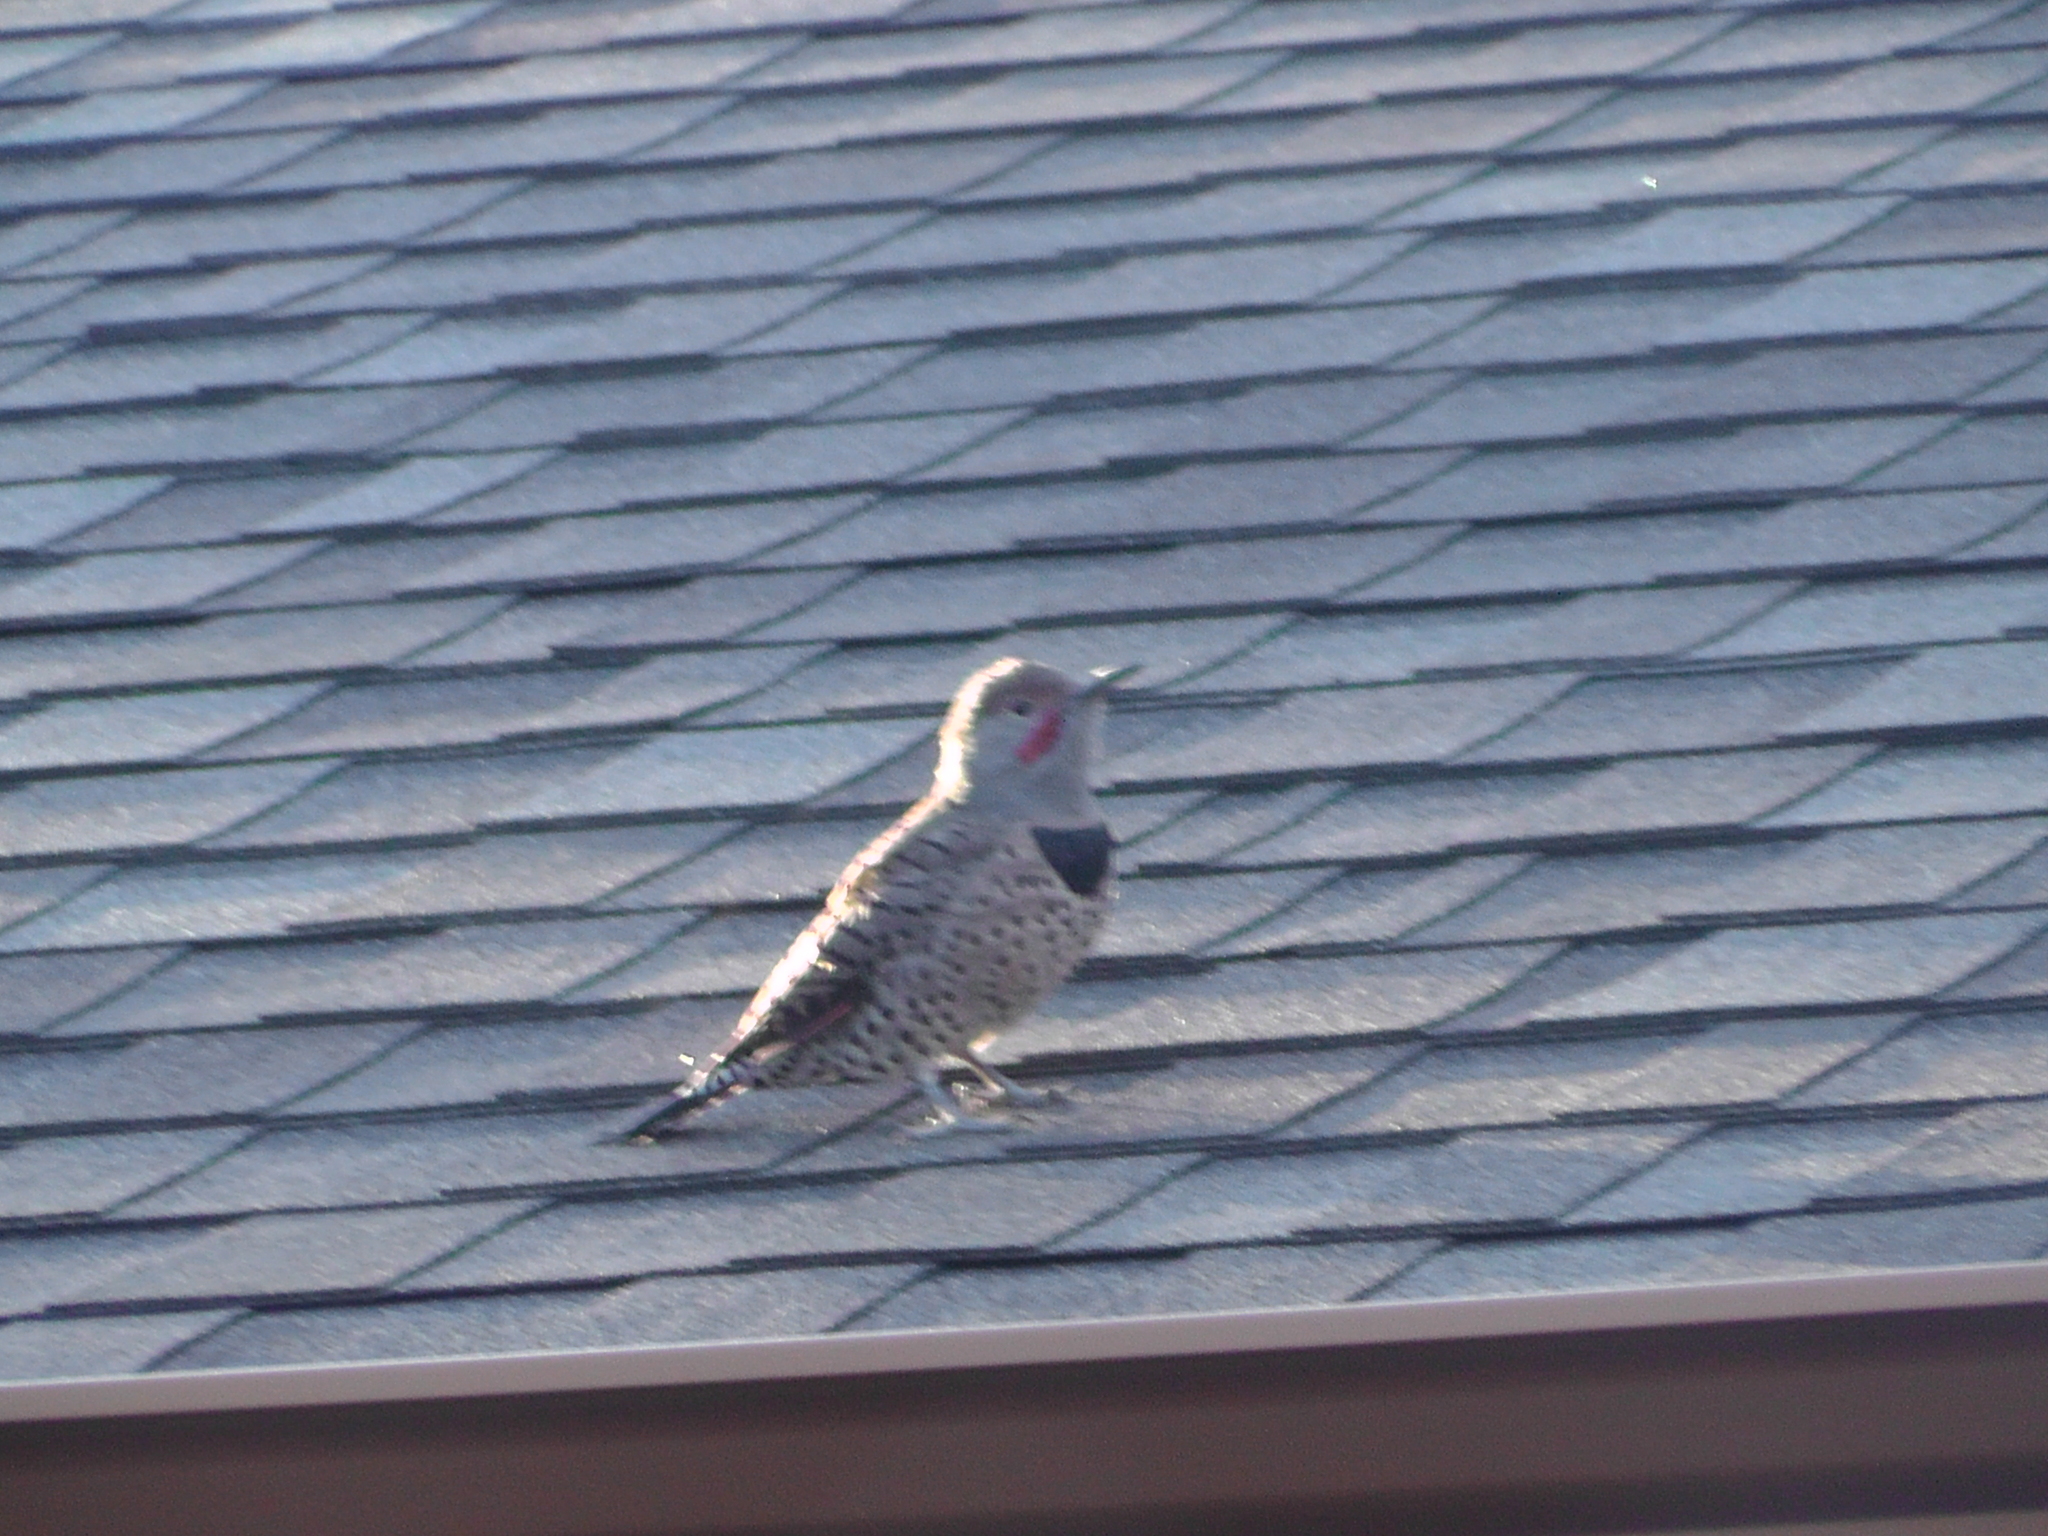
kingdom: Animalia
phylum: Chordata
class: Aves
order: Piciformes
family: Picidae
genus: Colaptes
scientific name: Colaptes auratus
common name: Northern flicker
